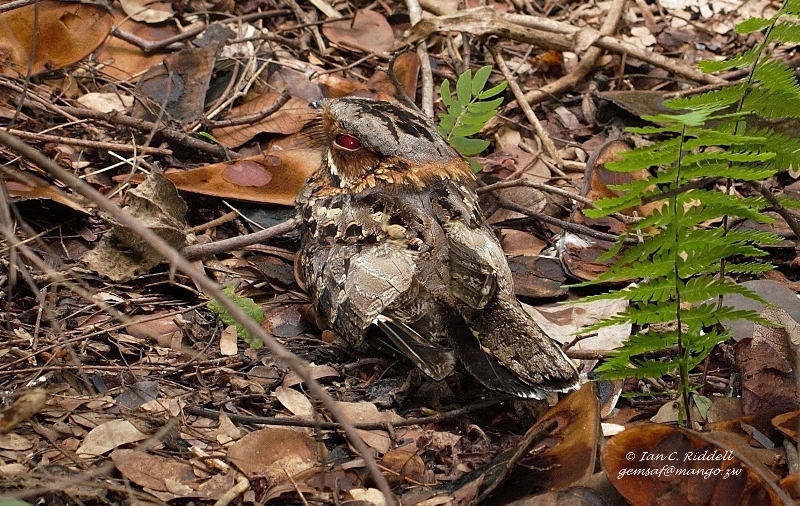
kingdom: Animalia
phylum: Chordata
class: Aves
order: Caprimulgiformes
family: Caprimulgidae
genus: Caprimulgus
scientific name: Caprimulgus pectoralis
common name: Fiery-necked nightjar
